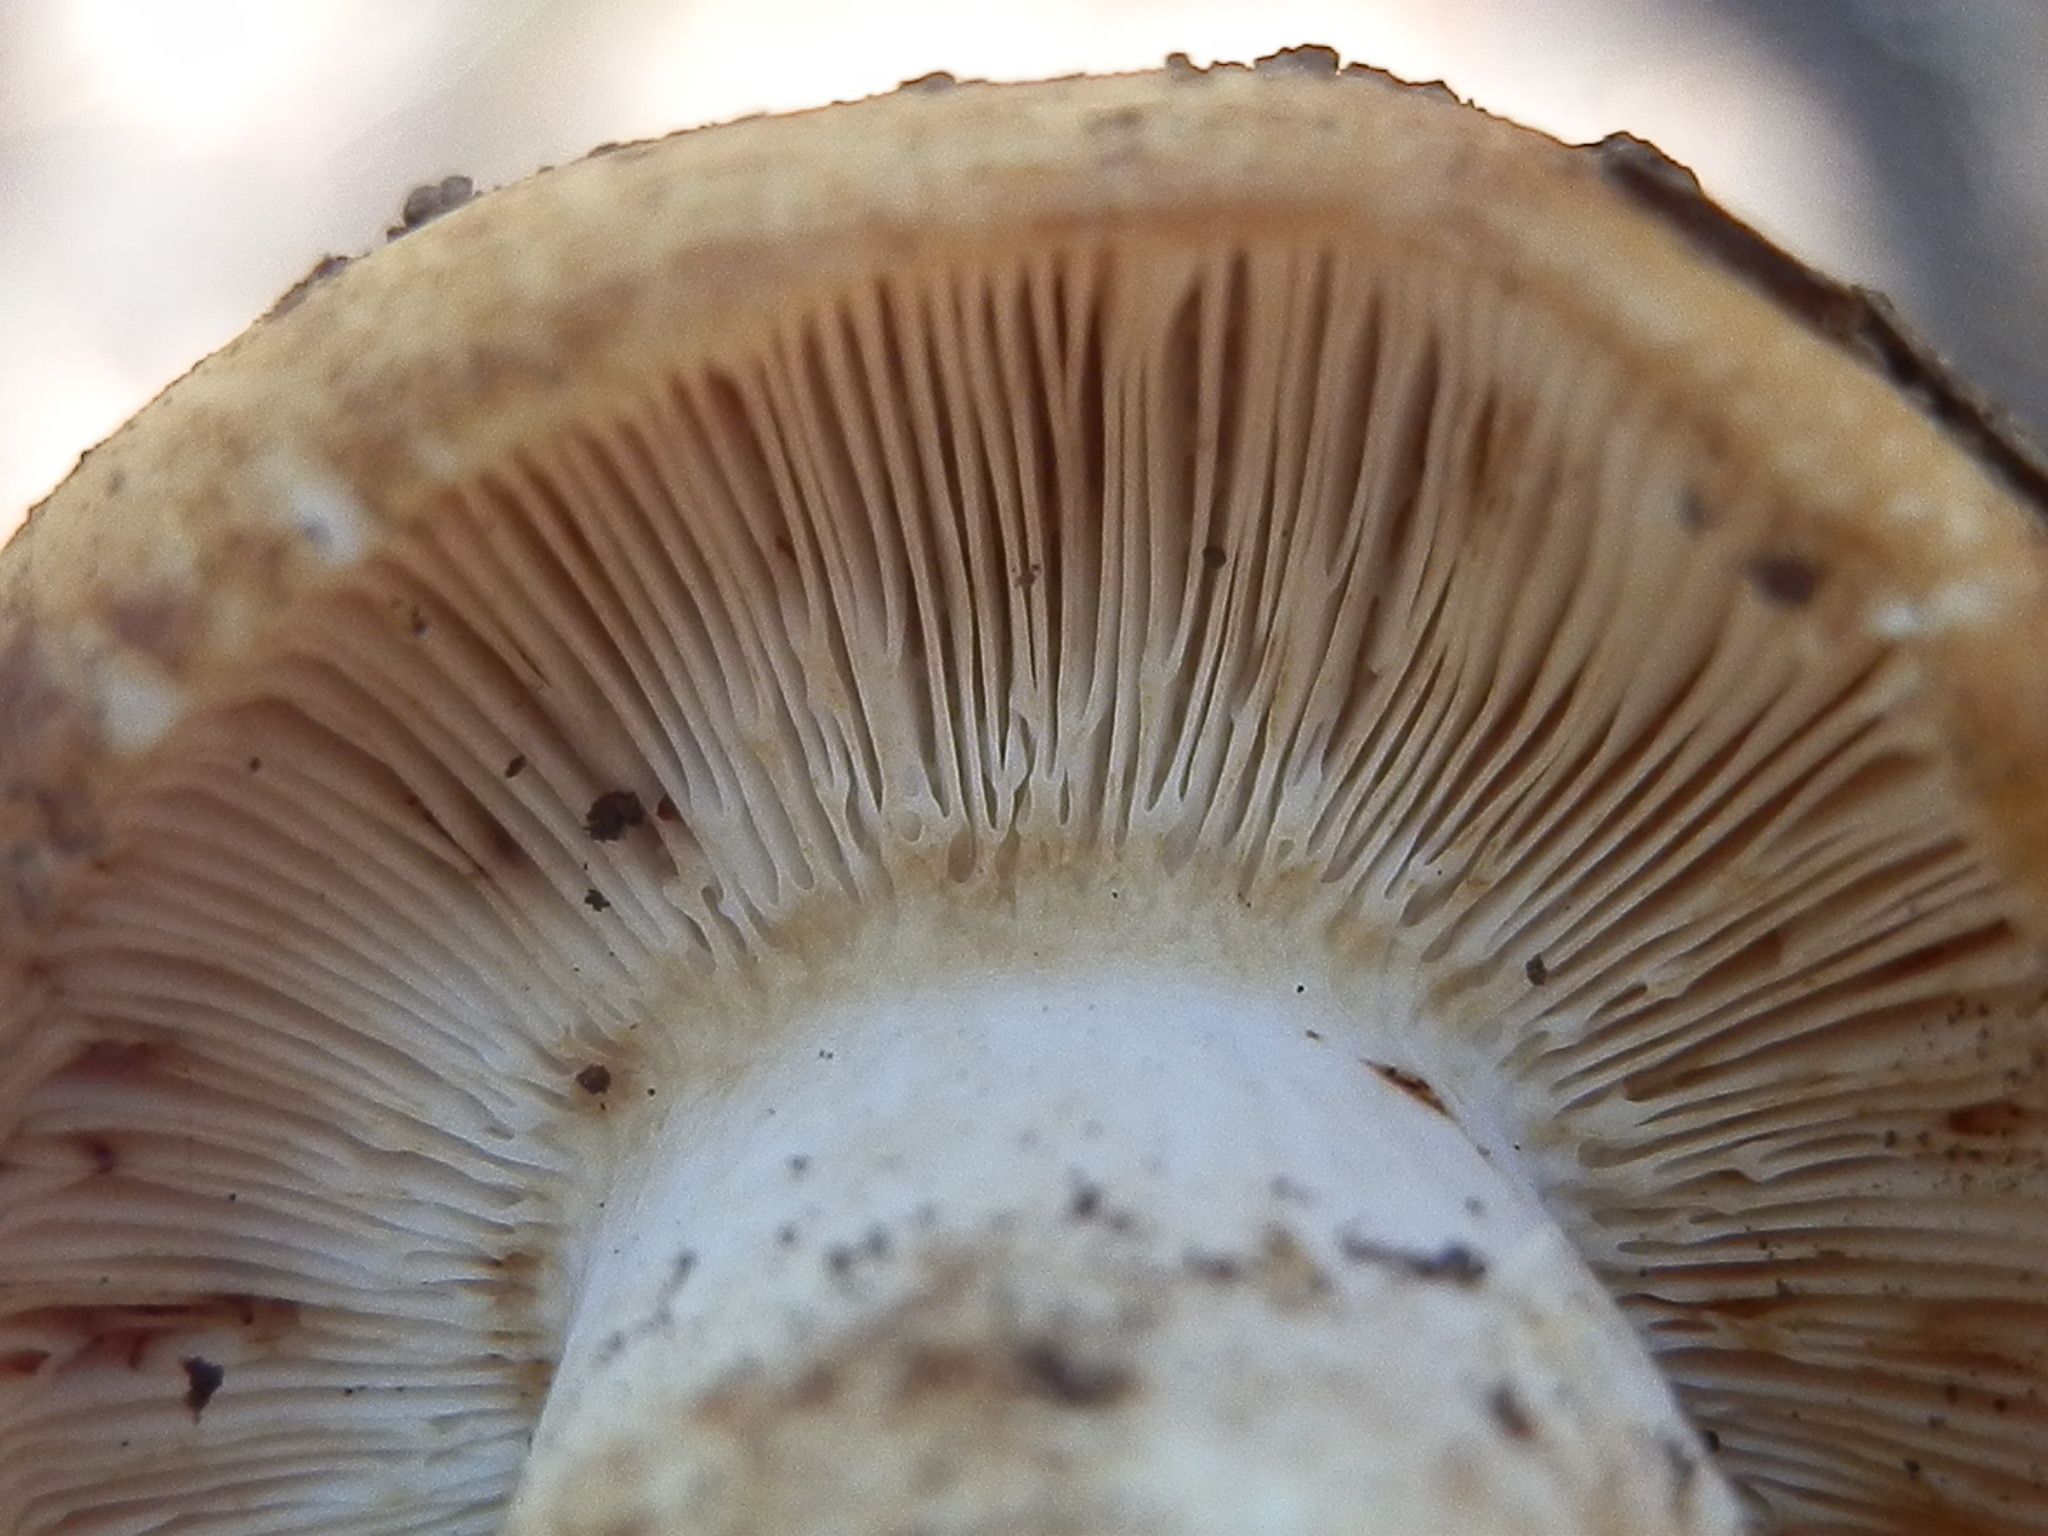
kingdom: Fungi
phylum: Basidiomycota
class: Agaricomycetes
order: Russulales
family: Russulaceae
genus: Russula
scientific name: Russula foetens
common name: Foetid russula
